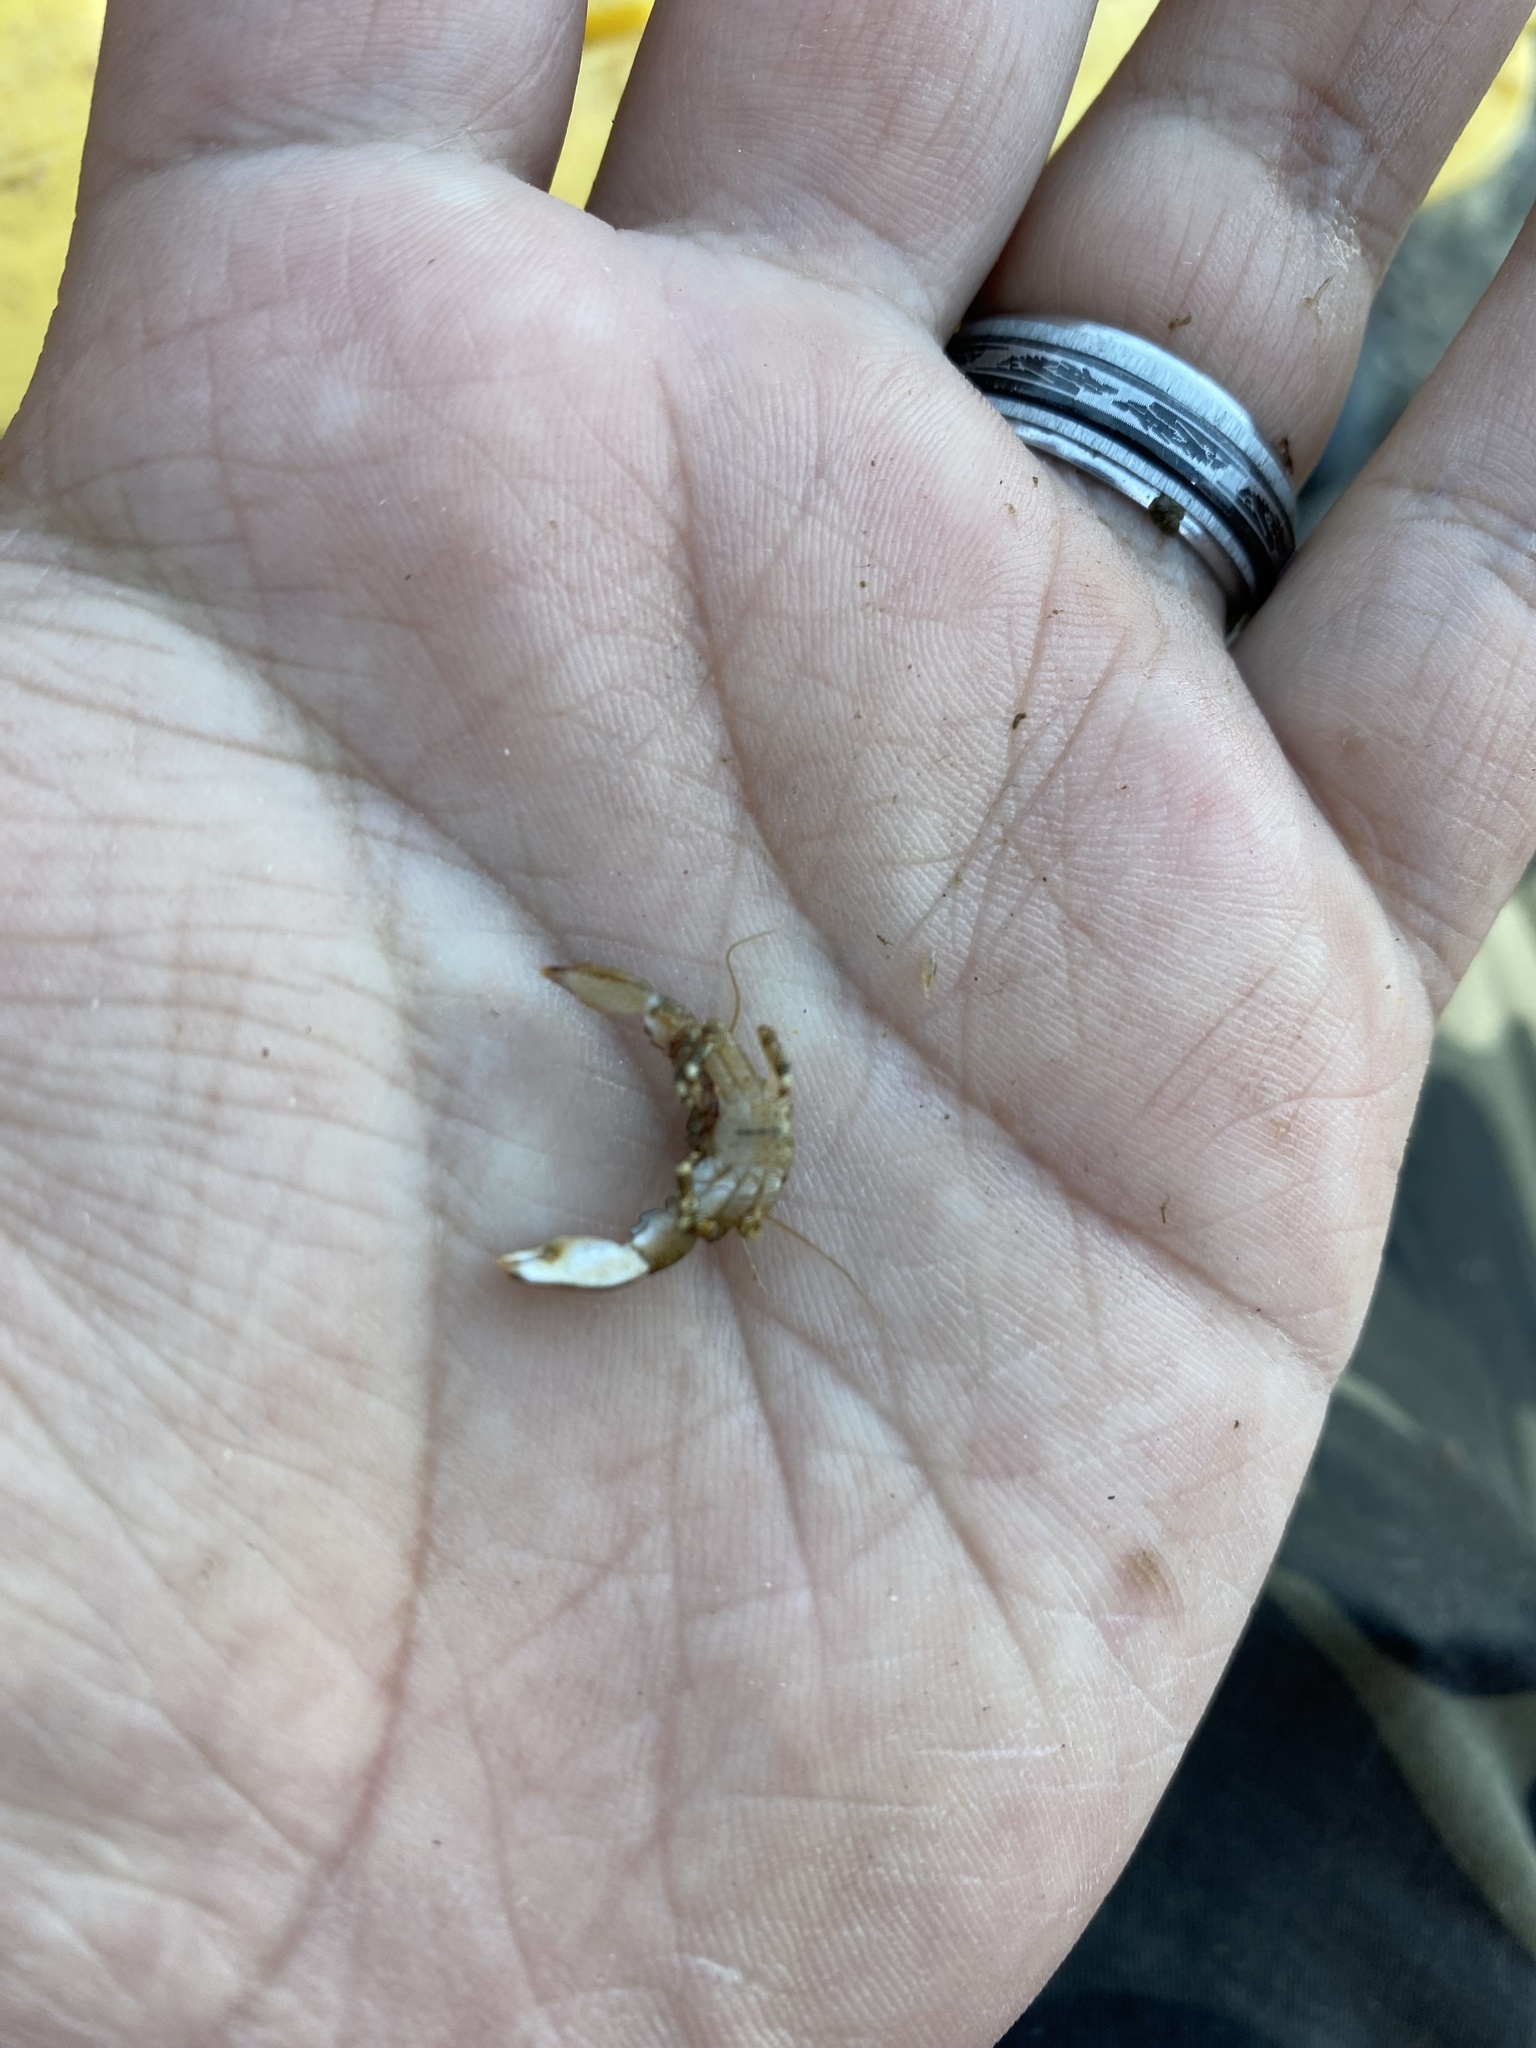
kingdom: Animalia
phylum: Arthropoda
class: Malacostraca
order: Decapoda
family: Porcellanidae
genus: Petrolisthes
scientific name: Petrolisthes angulosus
